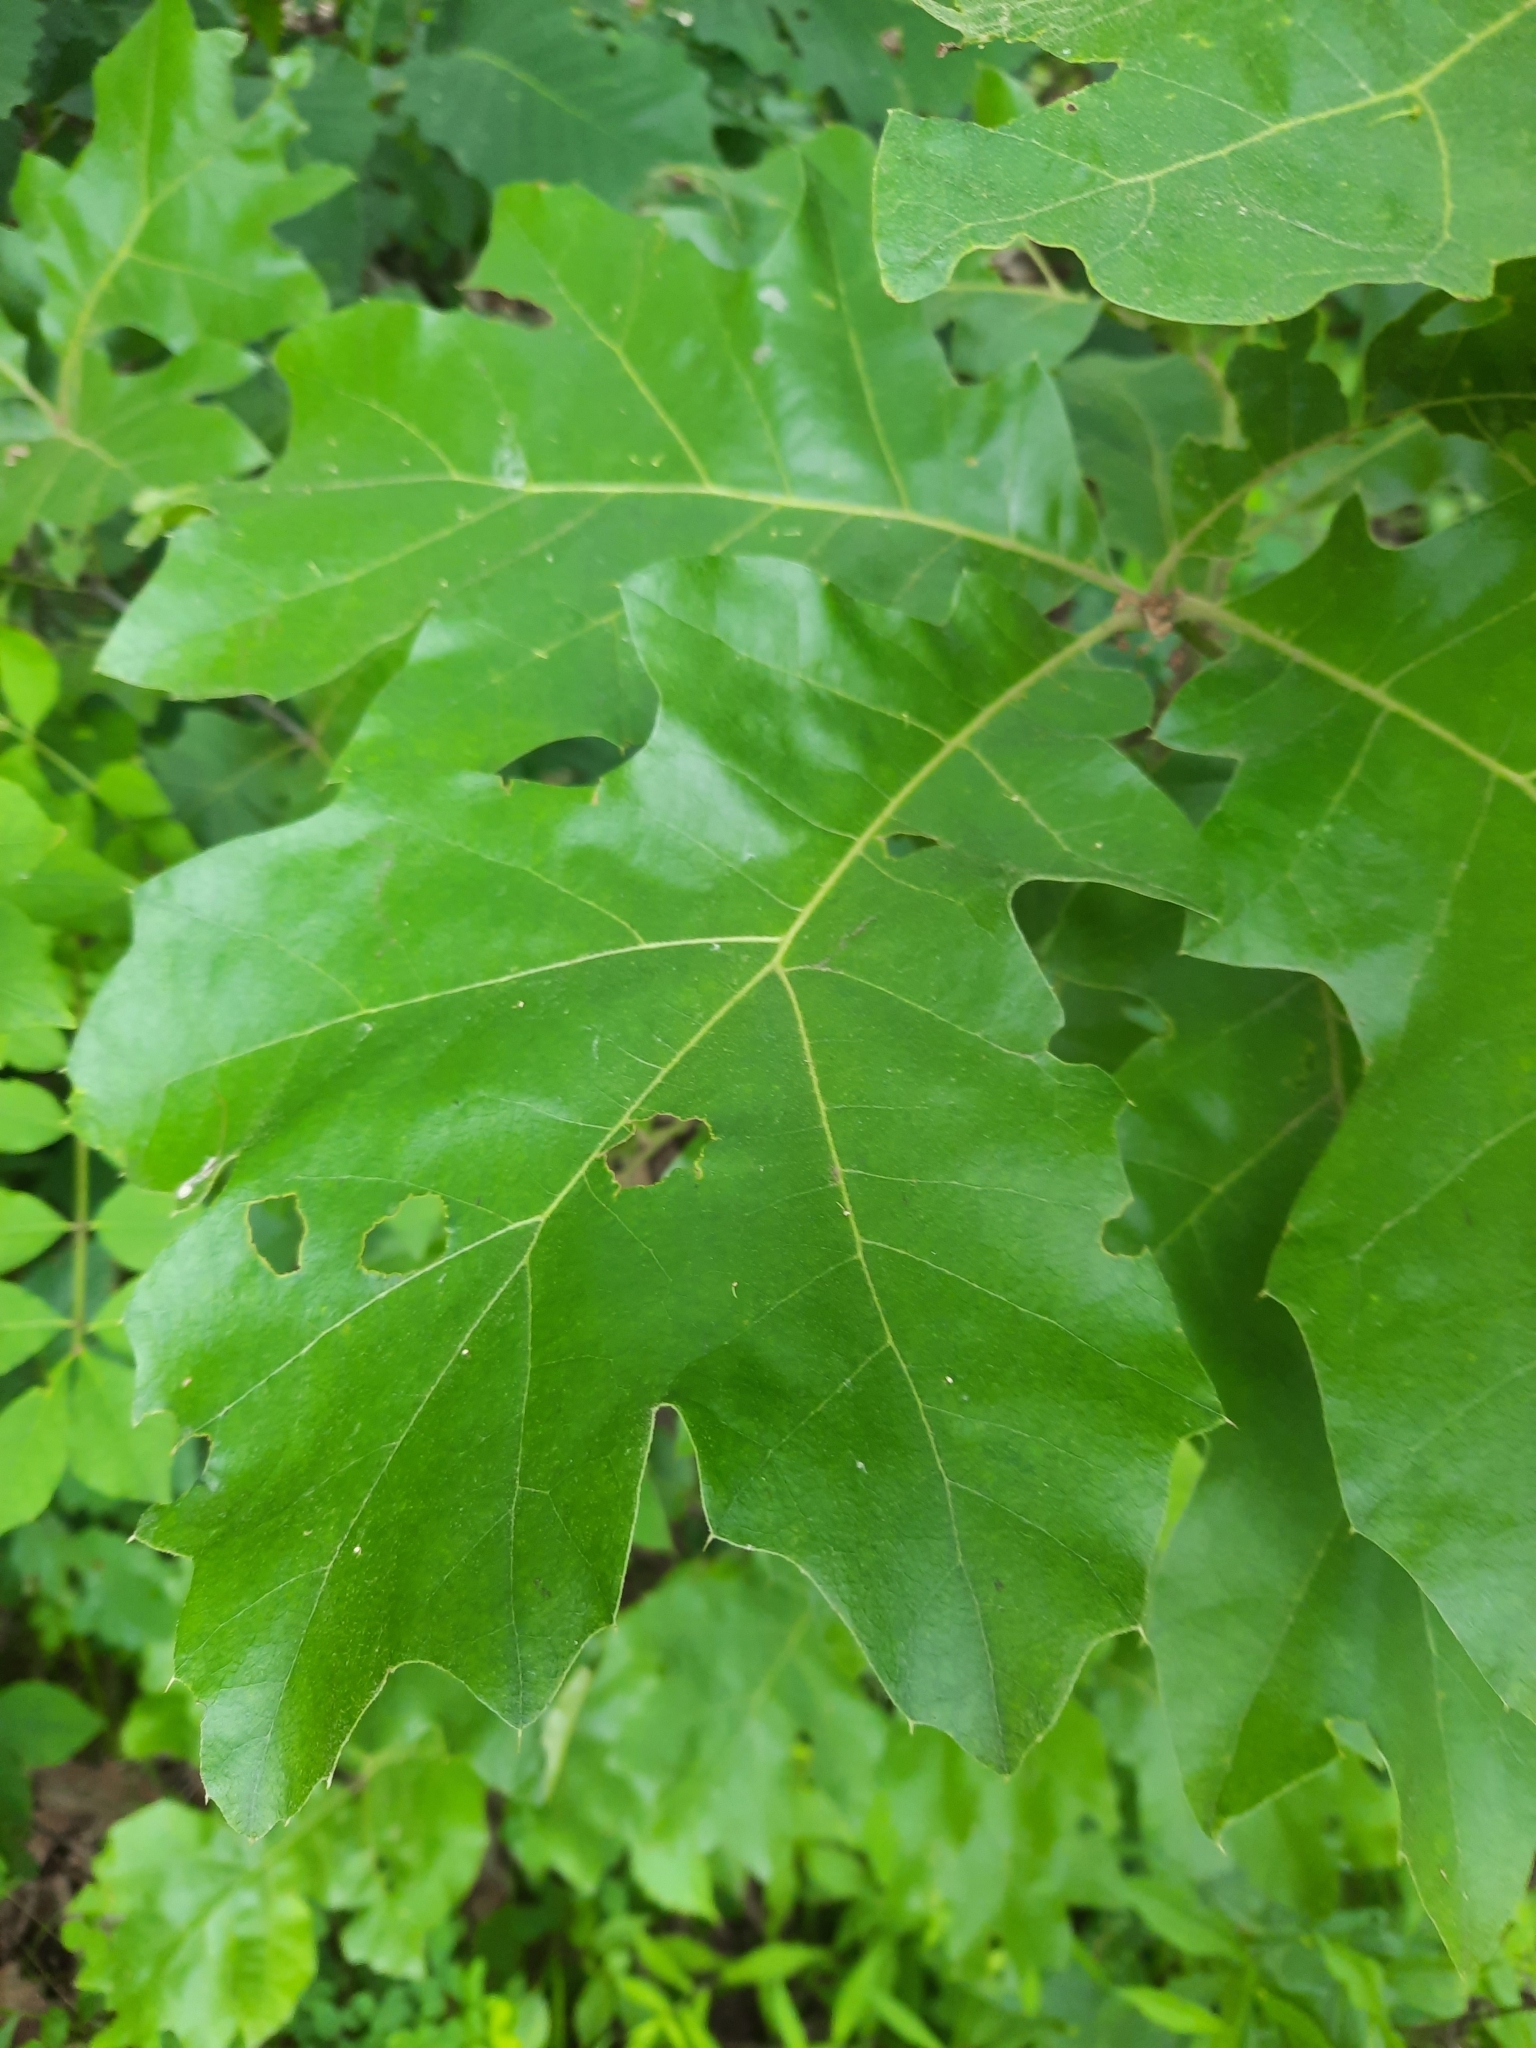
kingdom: Plantae
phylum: Tracheophyta
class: Magnoliopsida
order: Fagales
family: Fagaceae
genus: Quercus
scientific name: Quercus velutina
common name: Black oak
